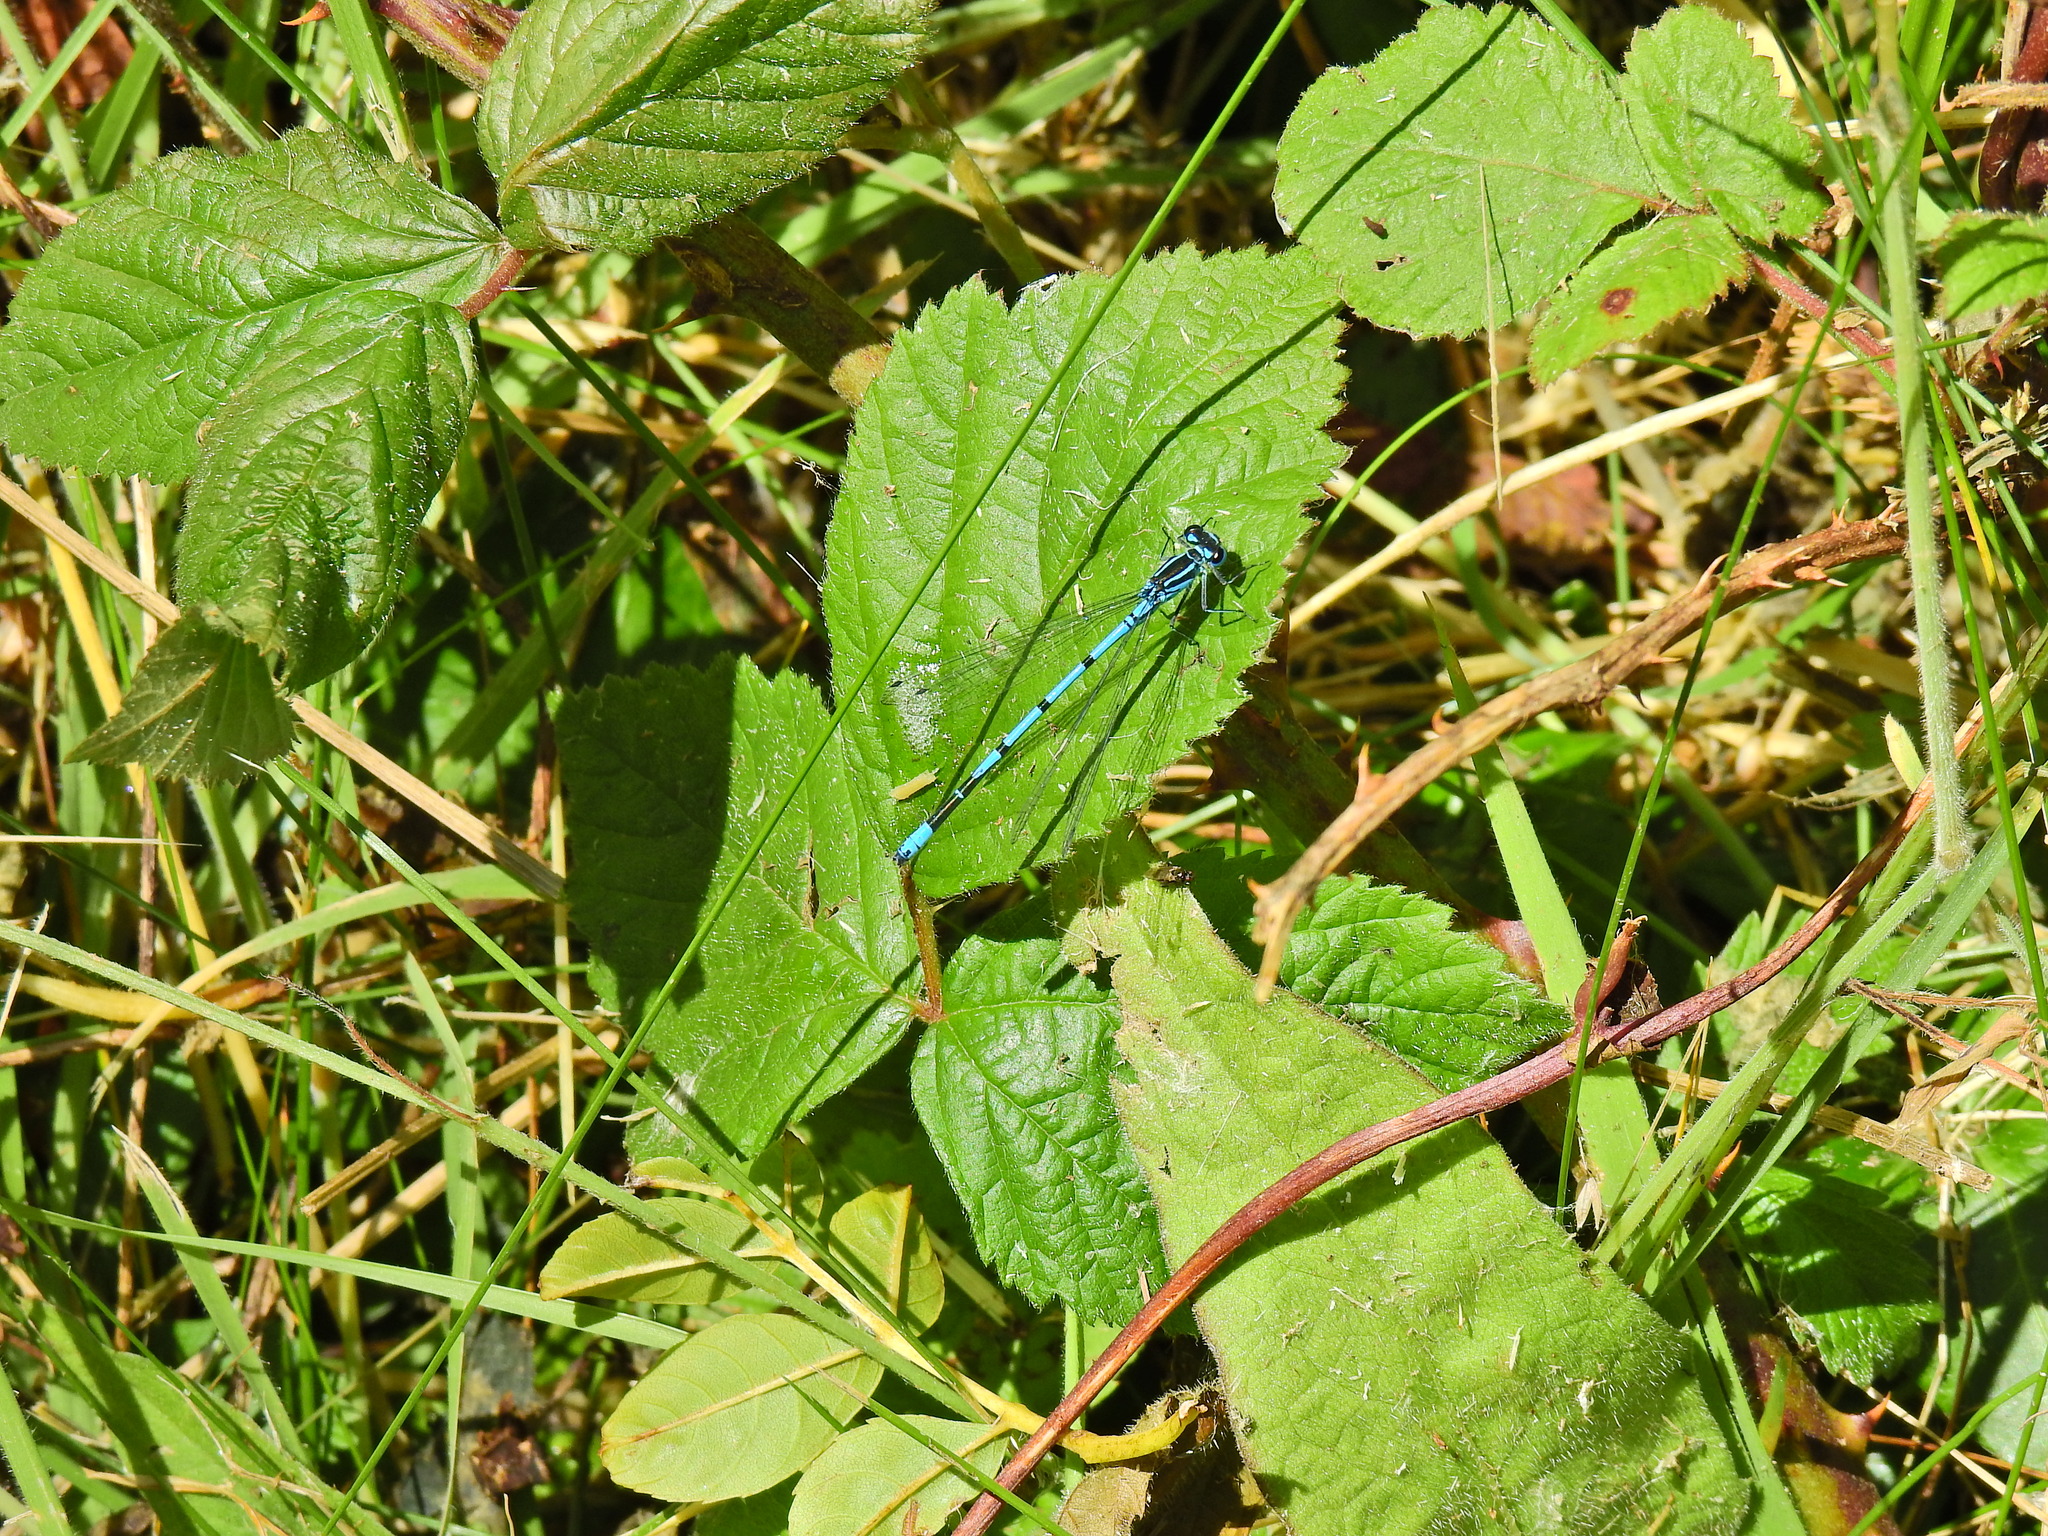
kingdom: Animalia
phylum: Arthropoda
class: Insecta
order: Odonata
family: Coenagrionidae
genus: Coenagrion
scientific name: Coenagrion puella
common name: Azure damselfly
